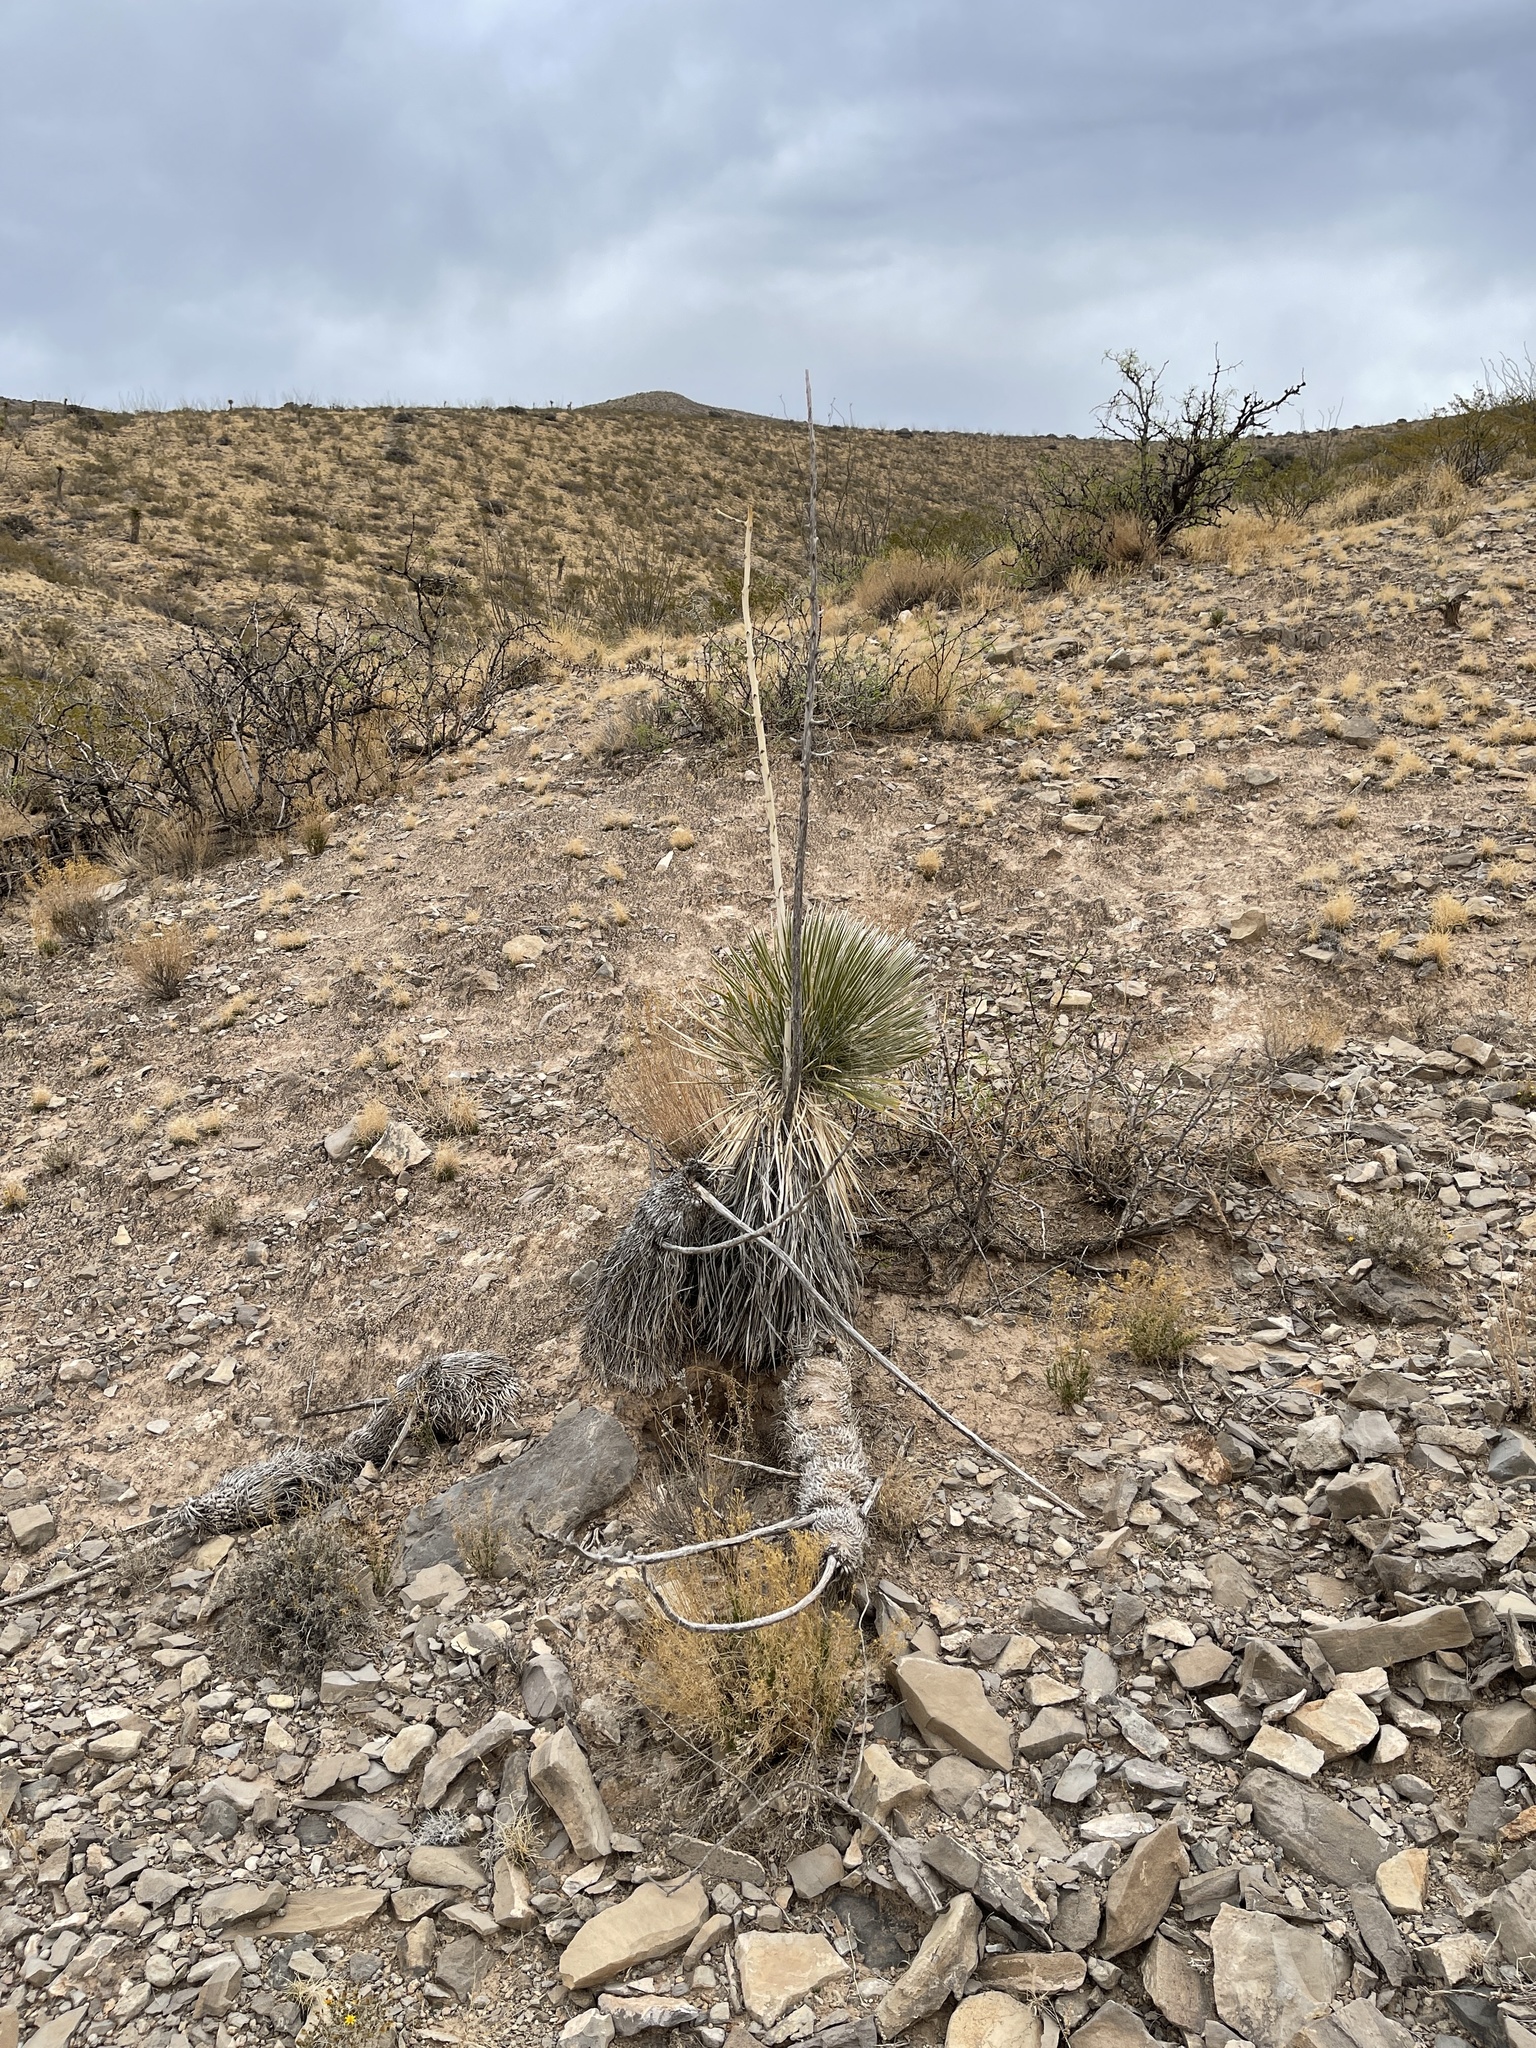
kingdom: Plantae
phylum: Tracheophyta
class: Liliopsida
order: Asparagales
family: Asparagaceae
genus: Yucca
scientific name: Yucca elata
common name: Palmella
